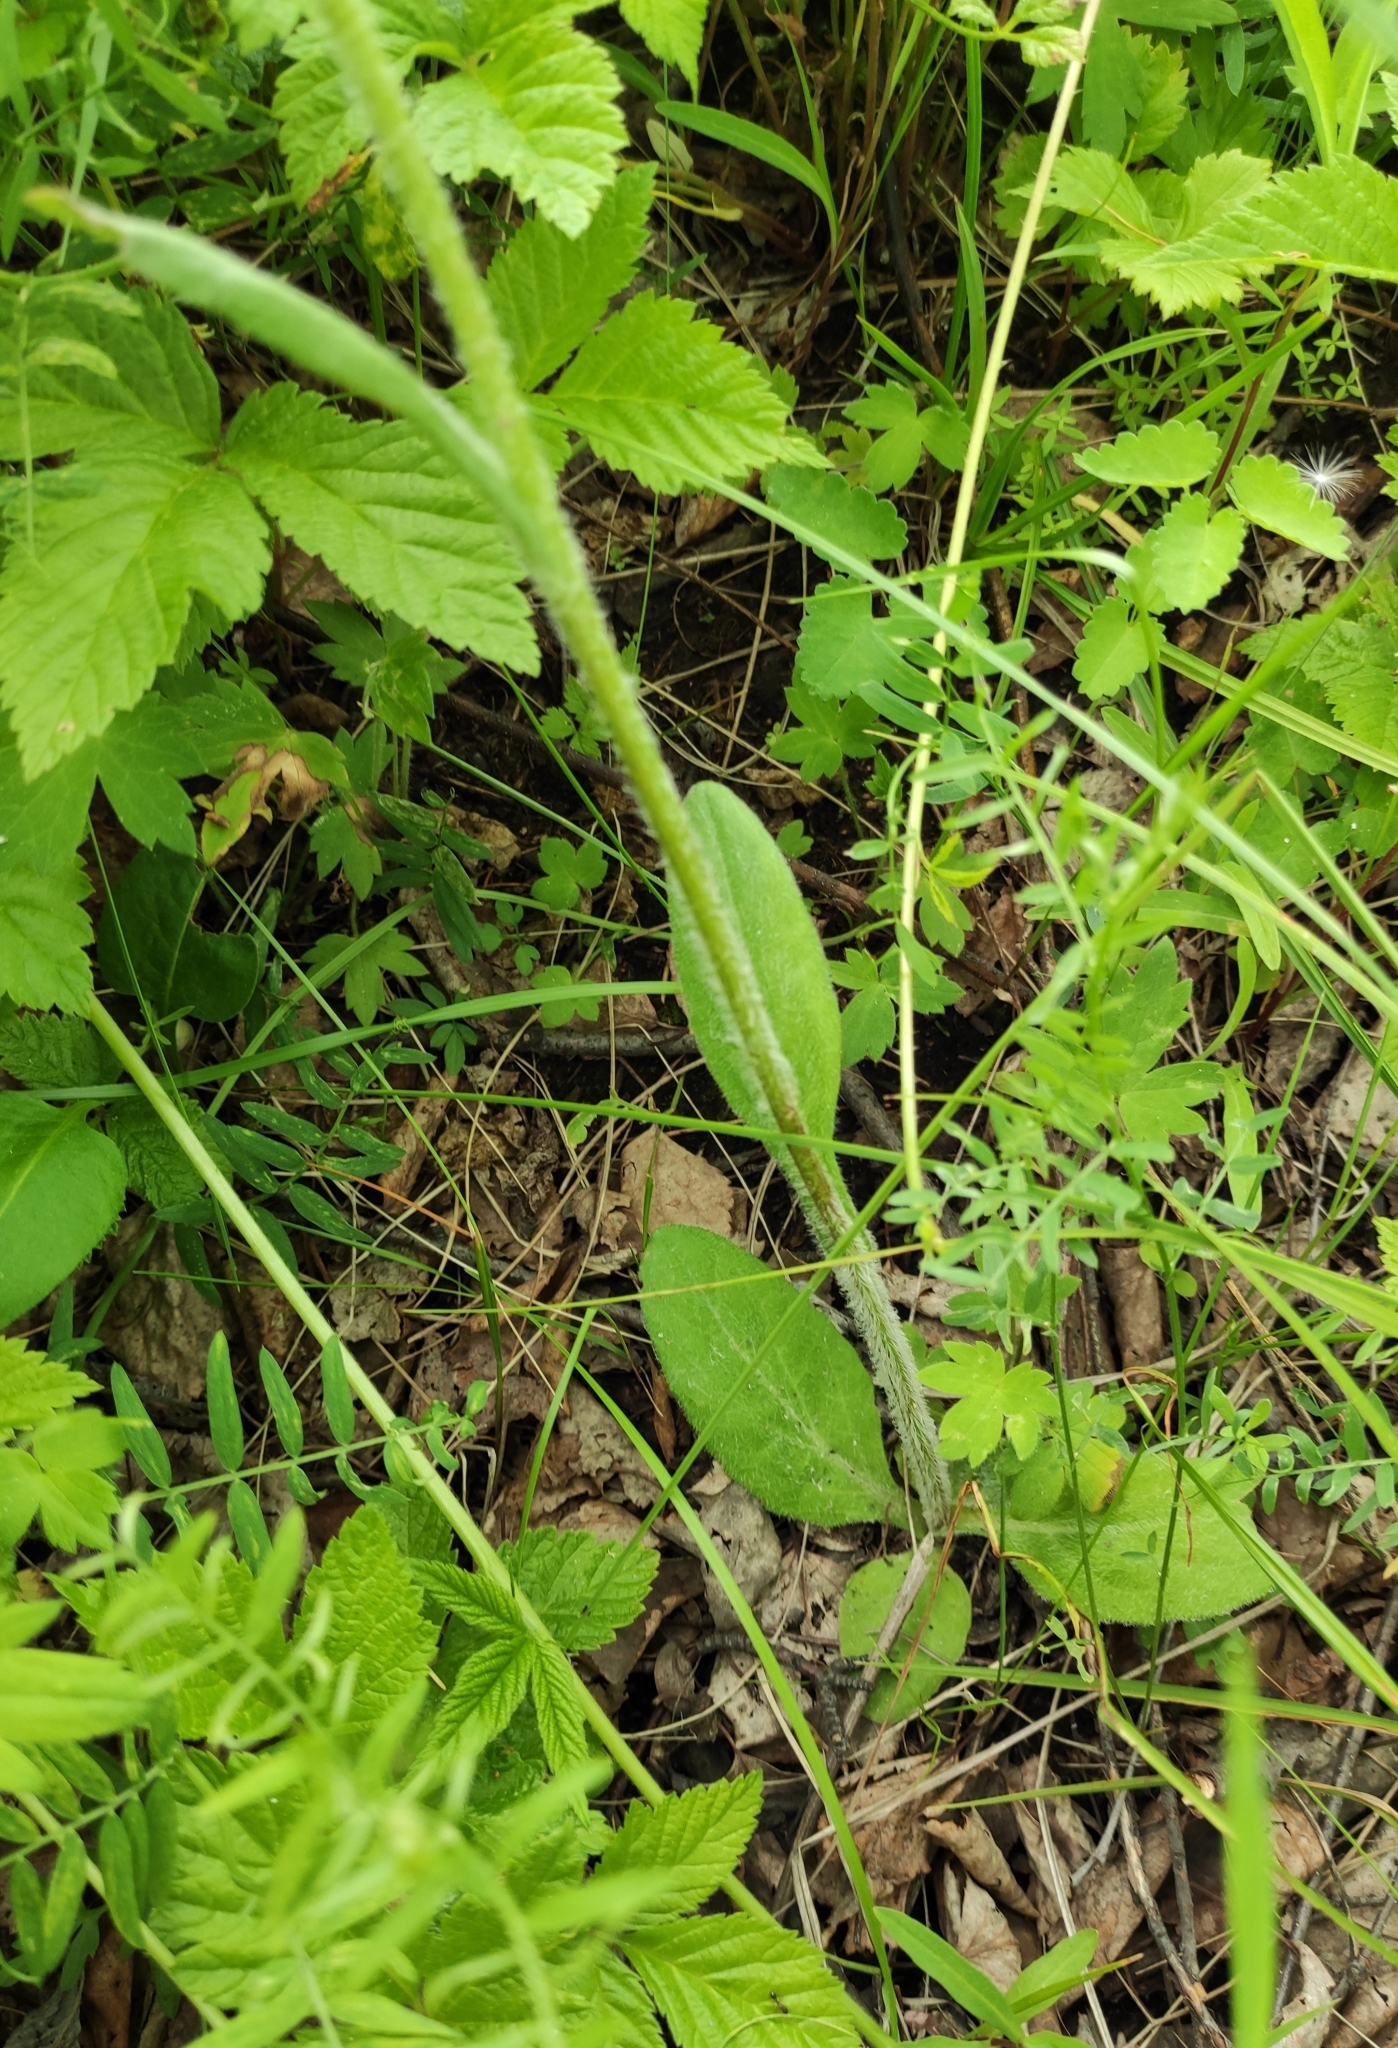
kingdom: Plantae
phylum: Tracheophyta
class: Magnoliopsida
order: Asterales
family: Asteraceae
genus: Tephroseris
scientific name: Tephroseris porphyrantha
